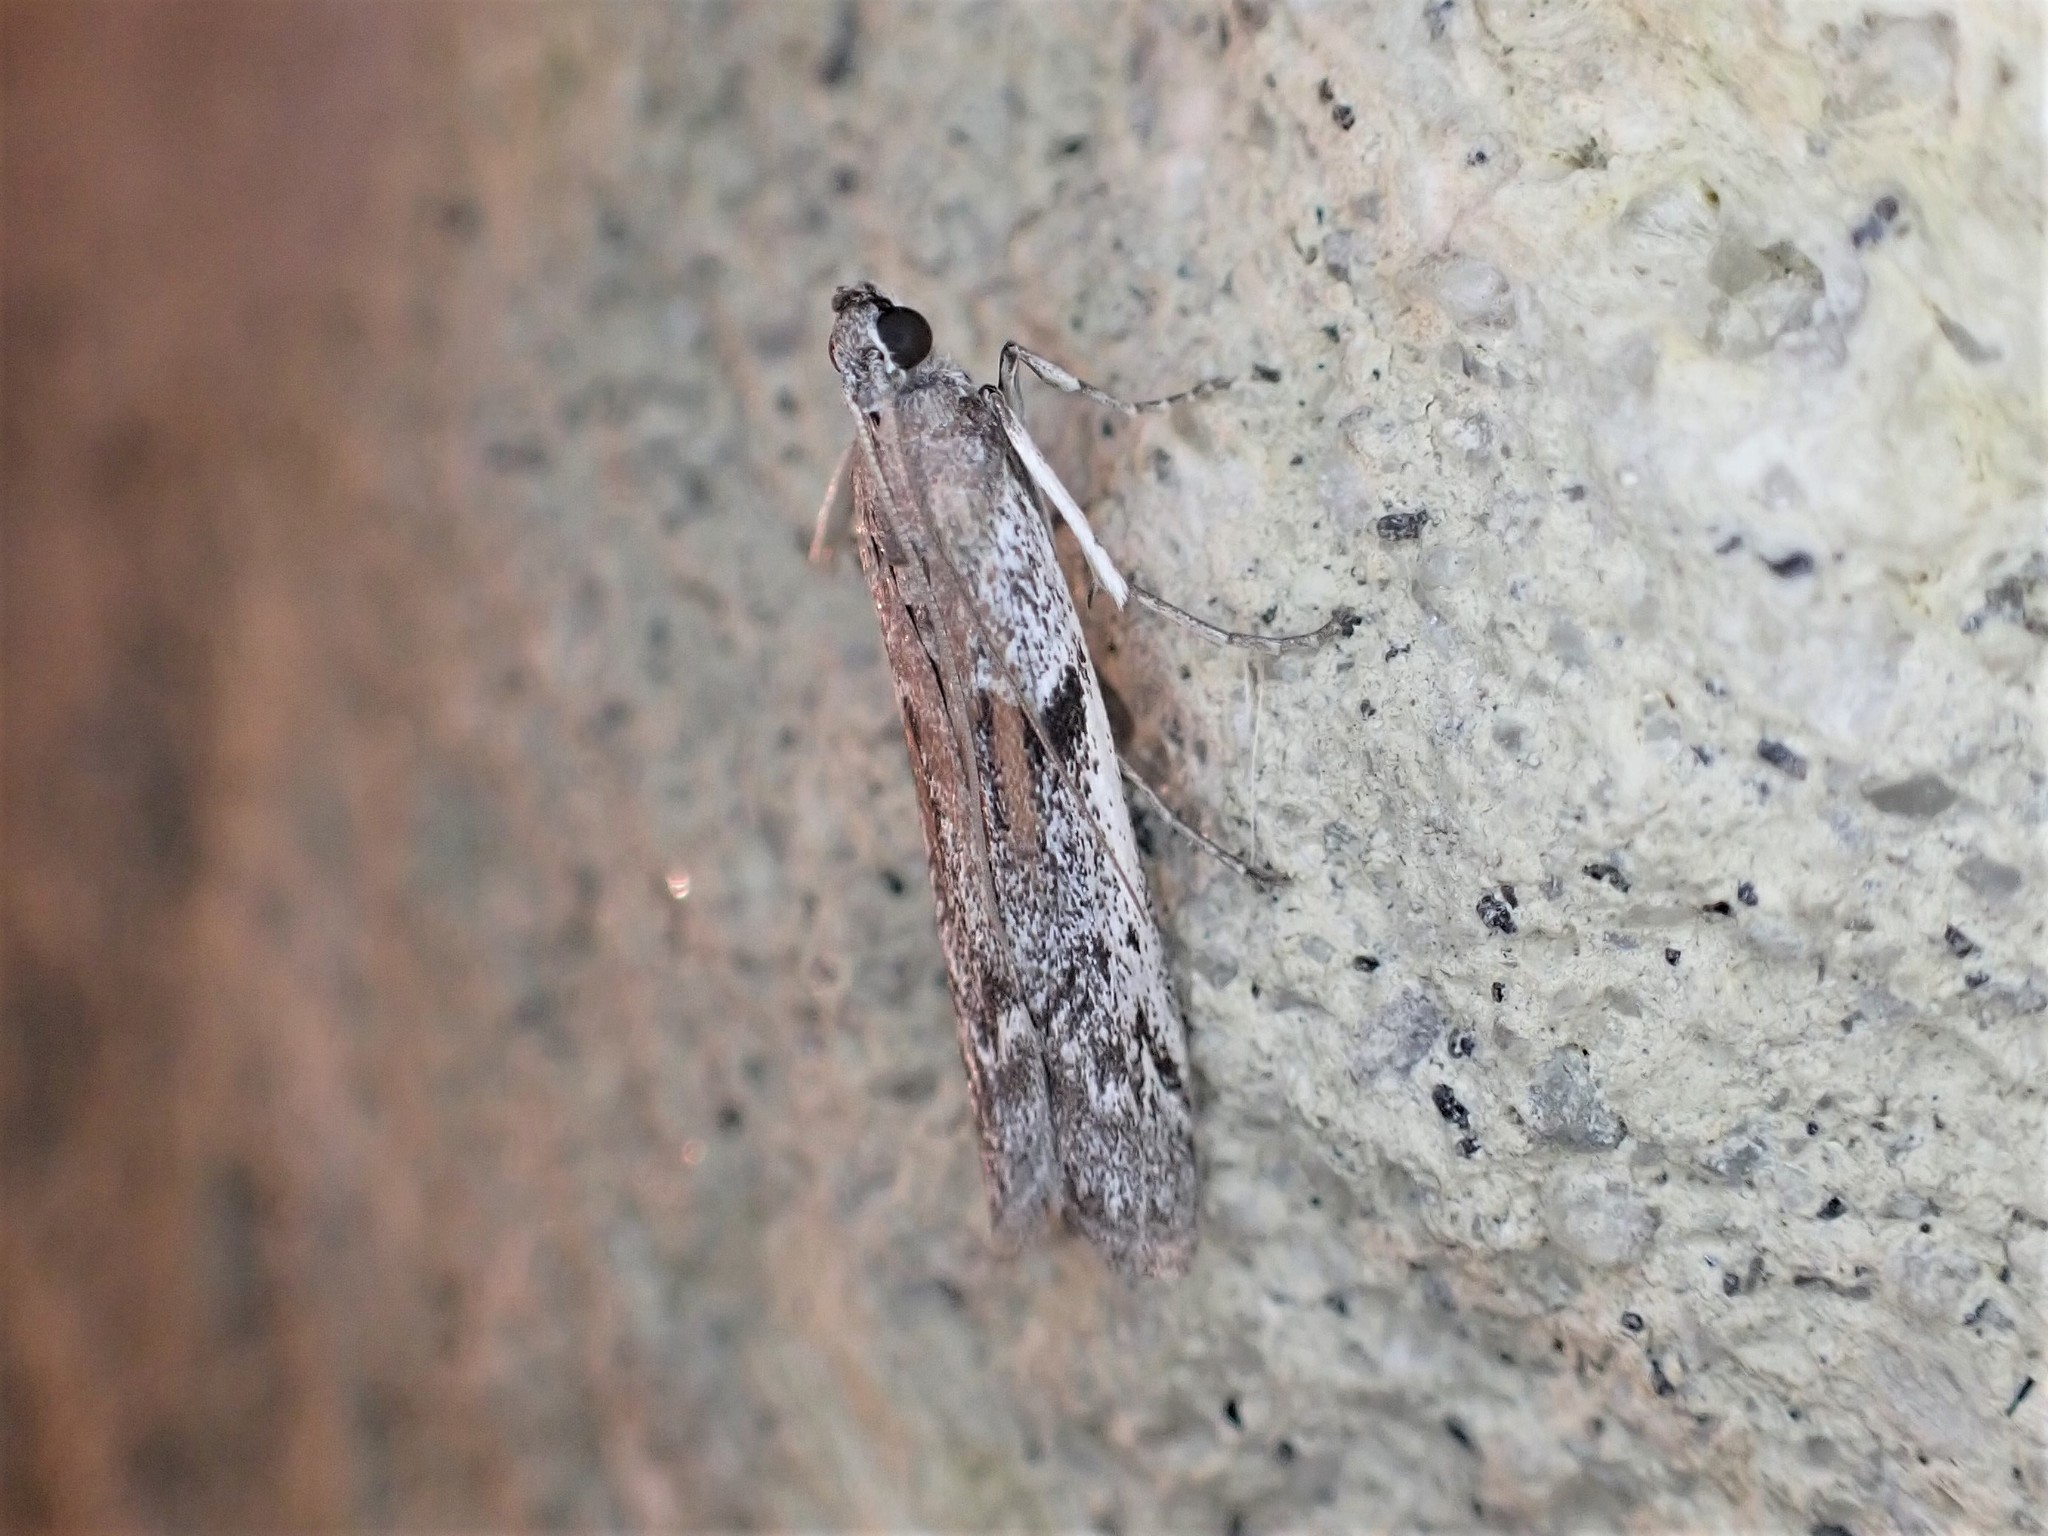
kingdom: Animalia
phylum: Arthropoda
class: Insecta
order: Lepidoptera
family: Pyralidae
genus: Patagoniodes
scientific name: Patagoniodes farinaria
